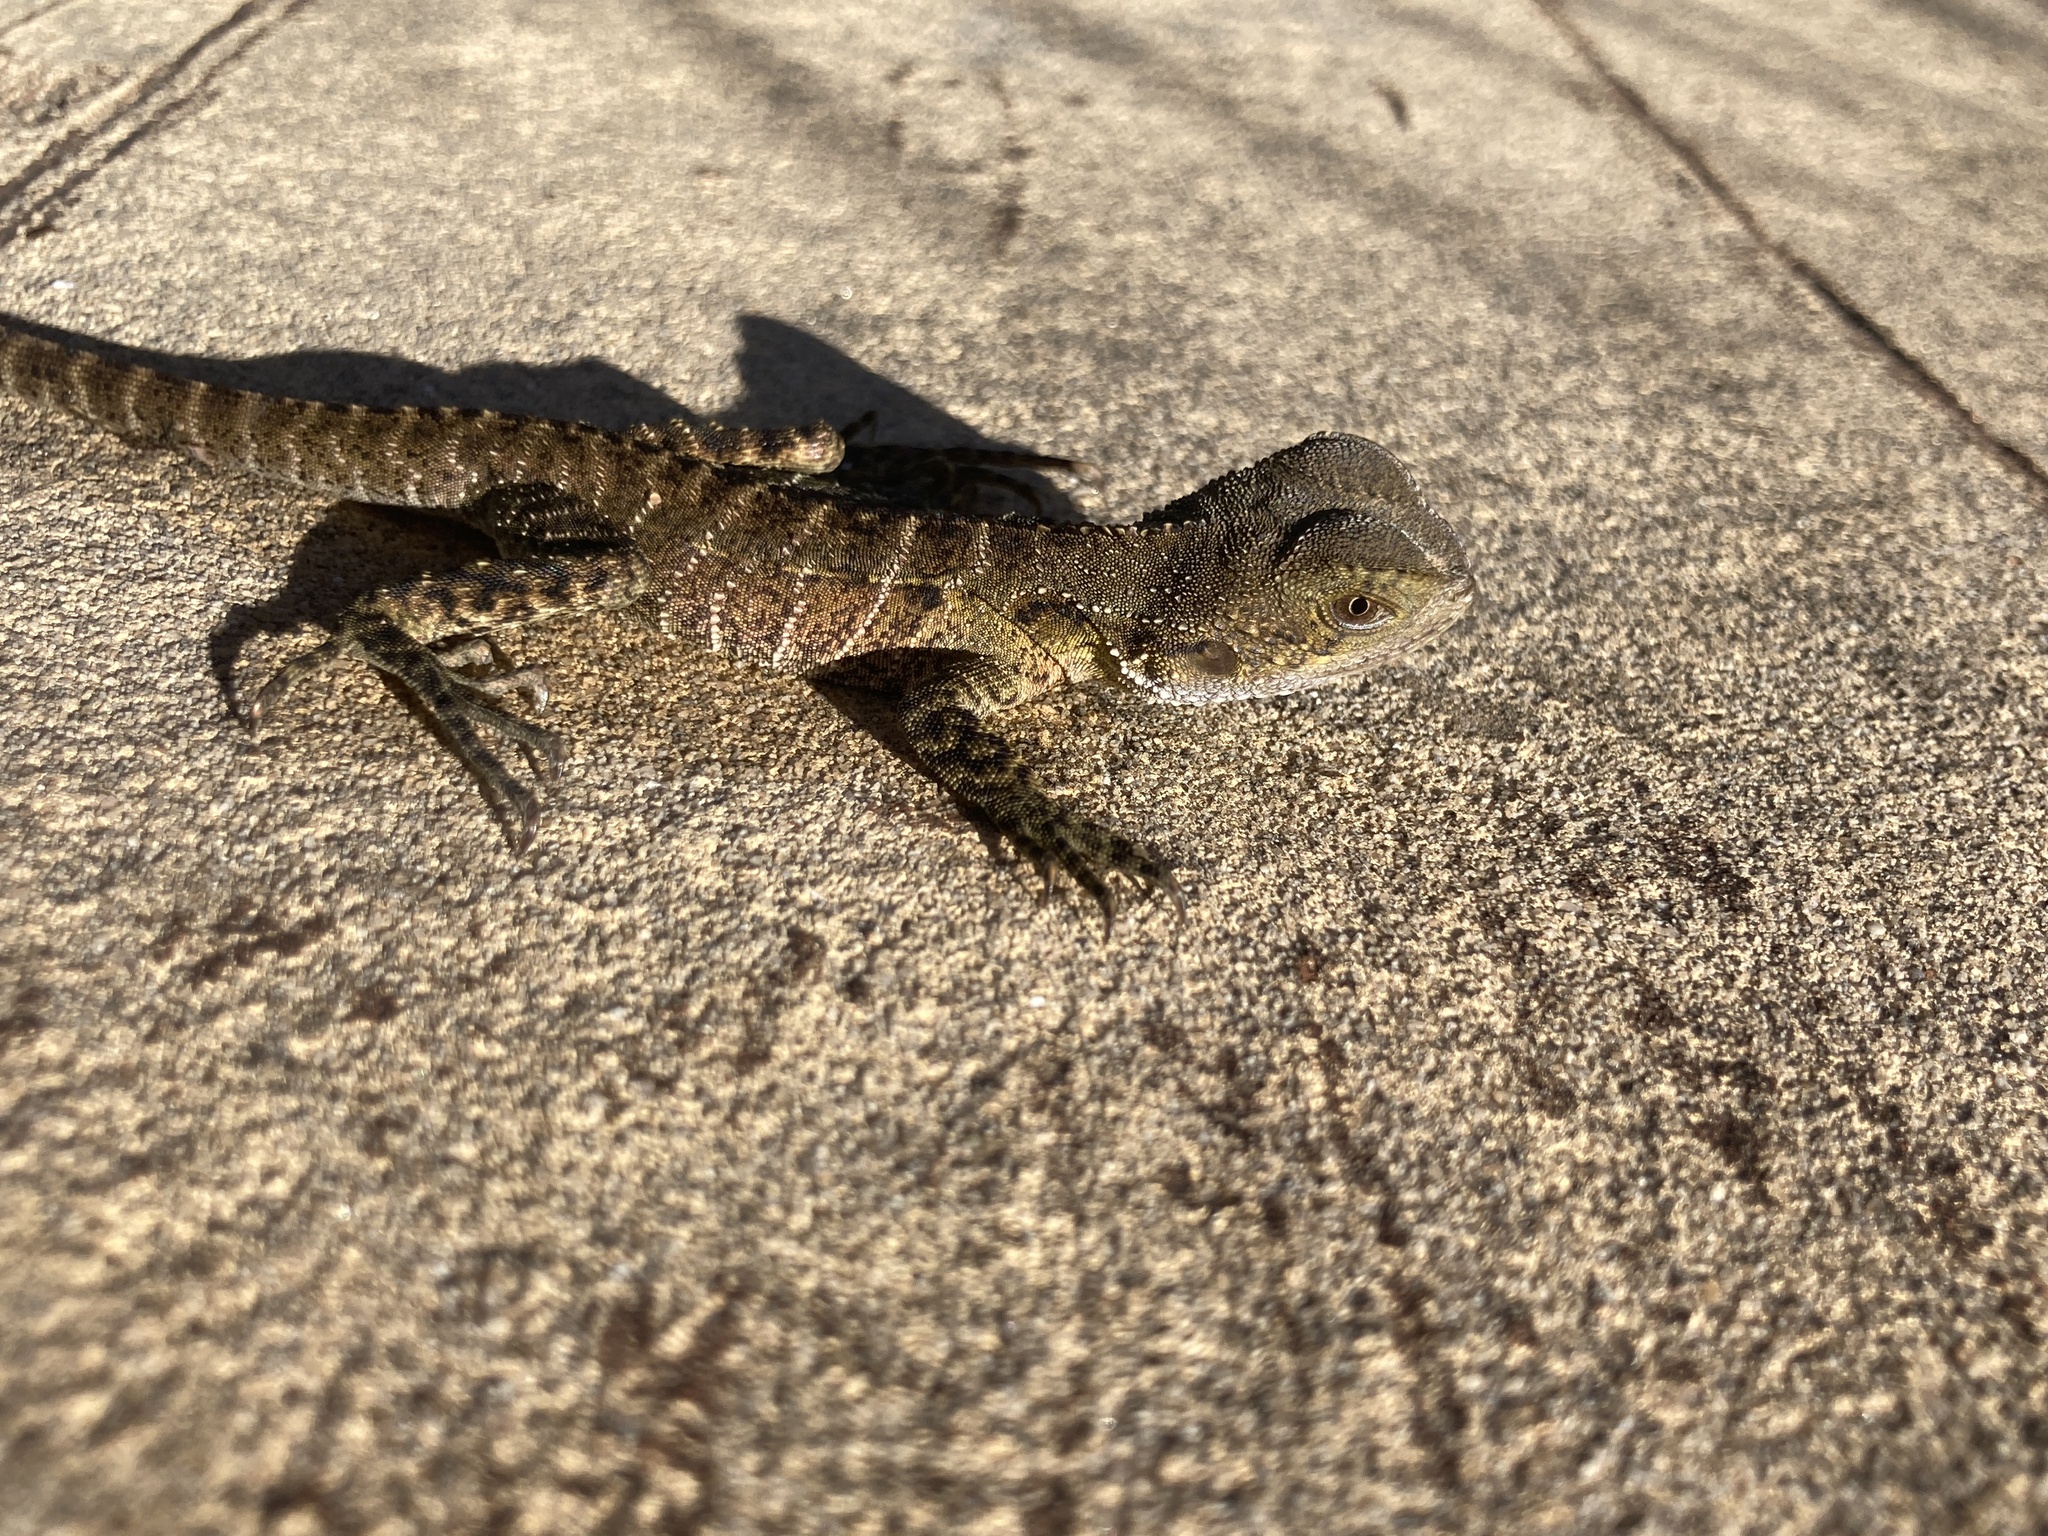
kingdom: Animalia
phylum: Chordata
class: Squamata
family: Agamidae
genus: Intellagama
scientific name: Intellagama lesueurii
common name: Eastern water dragon
